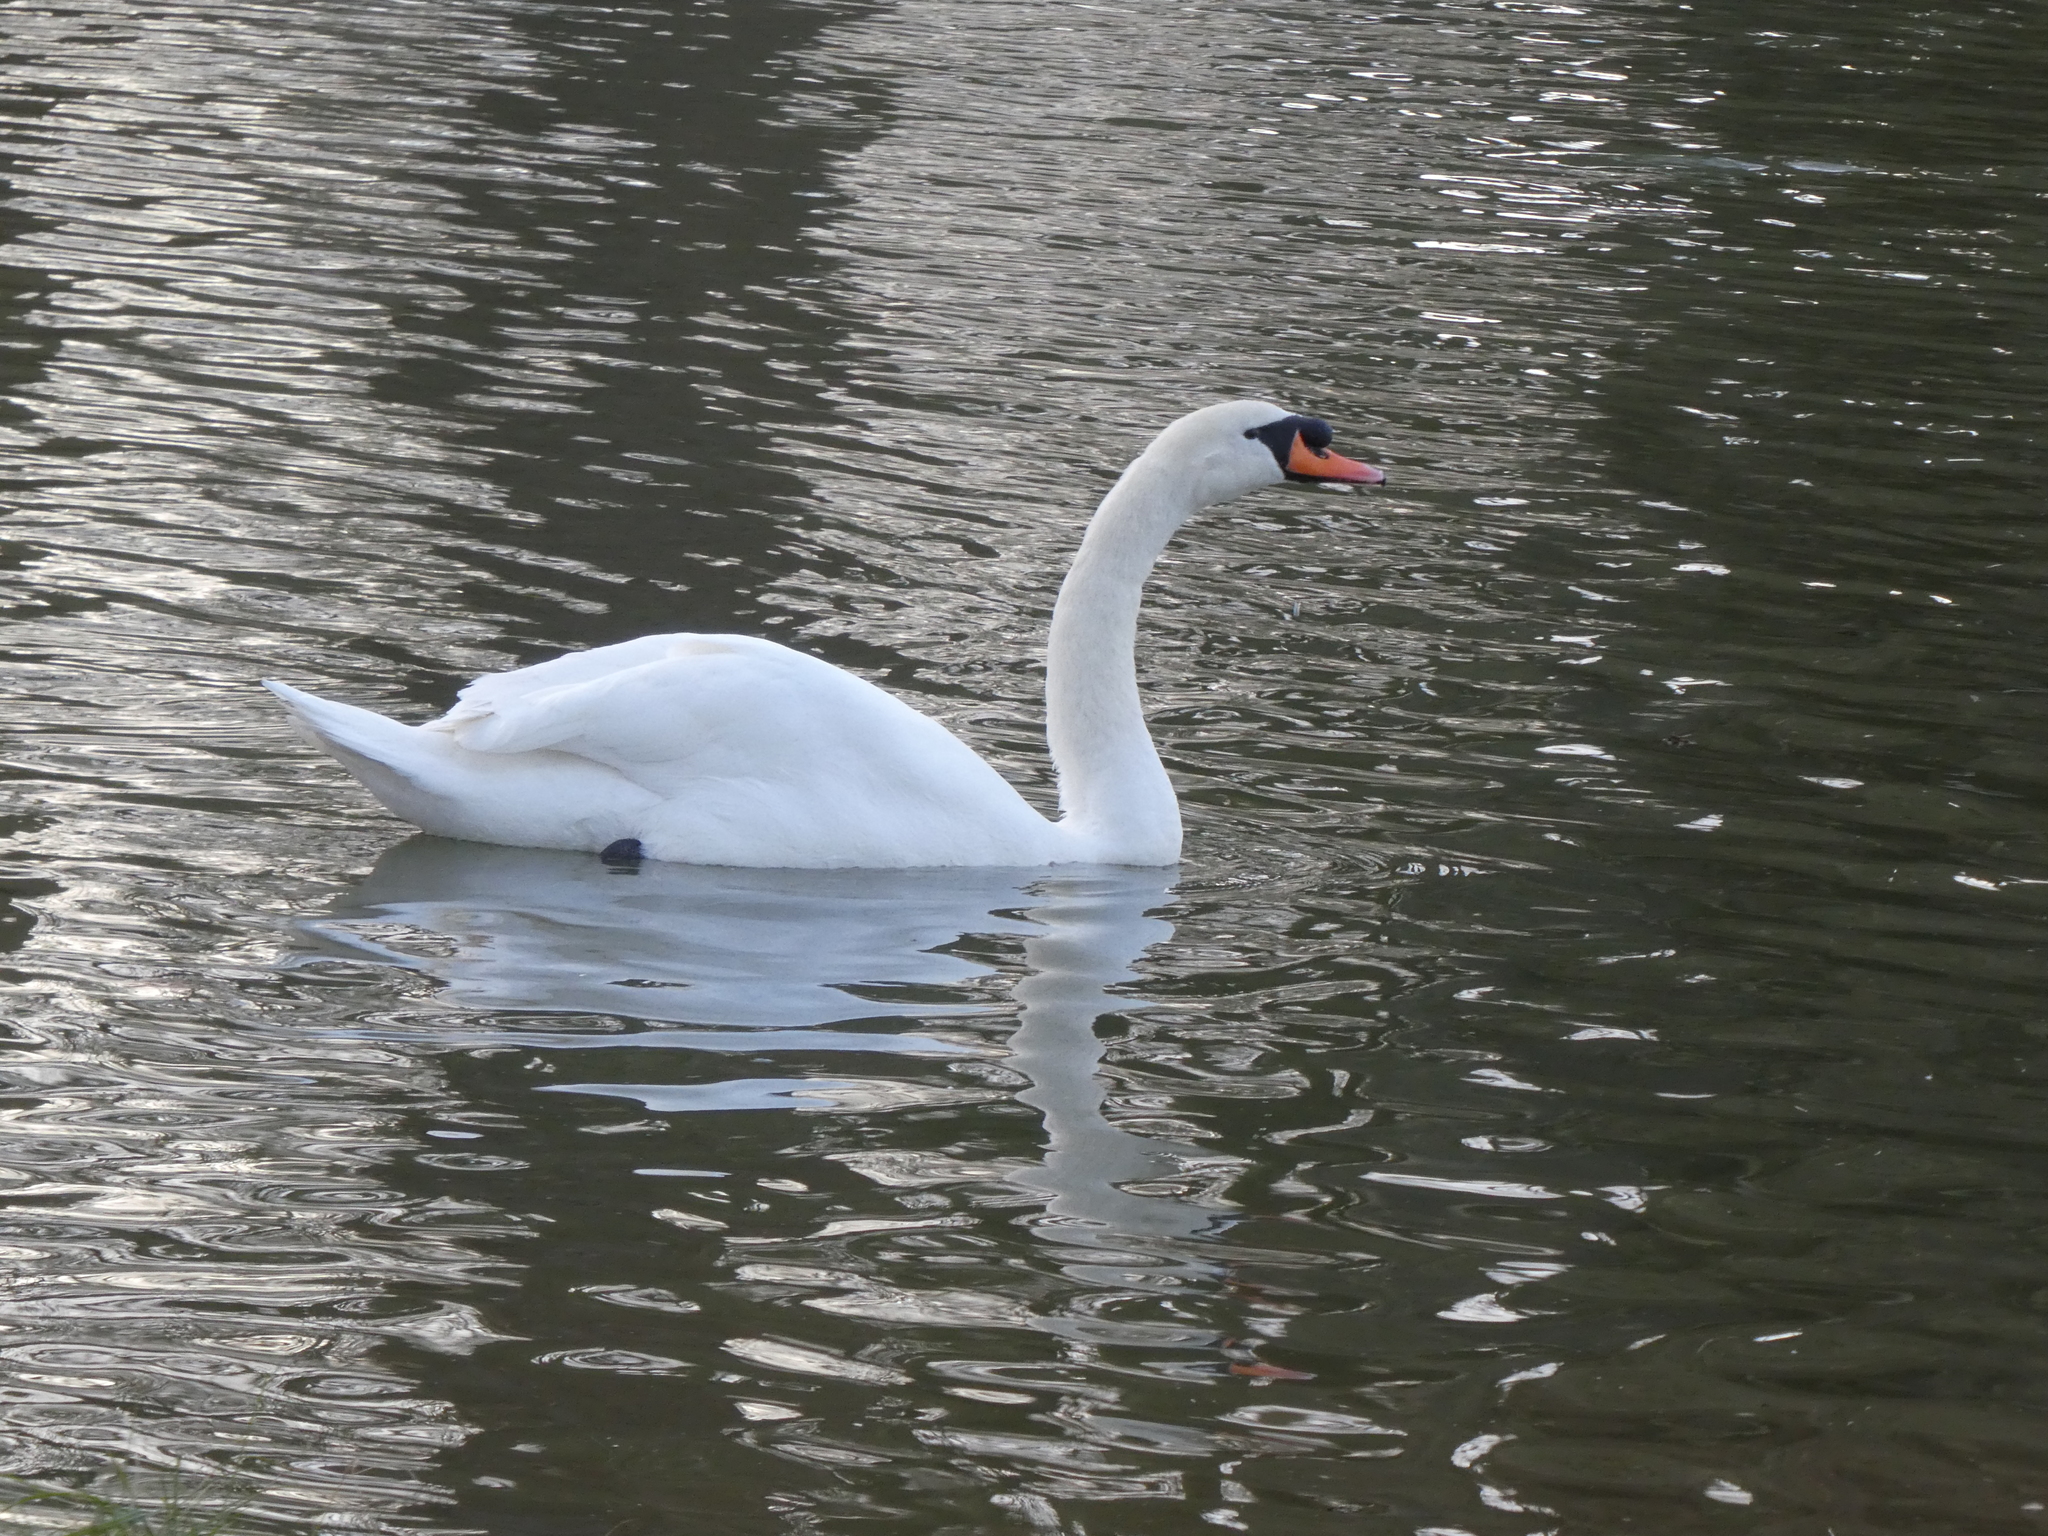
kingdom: Animalia
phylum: Chordata
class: Aves
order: Anseriformes
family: Anatidae
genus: Cygnus
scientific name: Cygnus olor
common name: Mute swan
